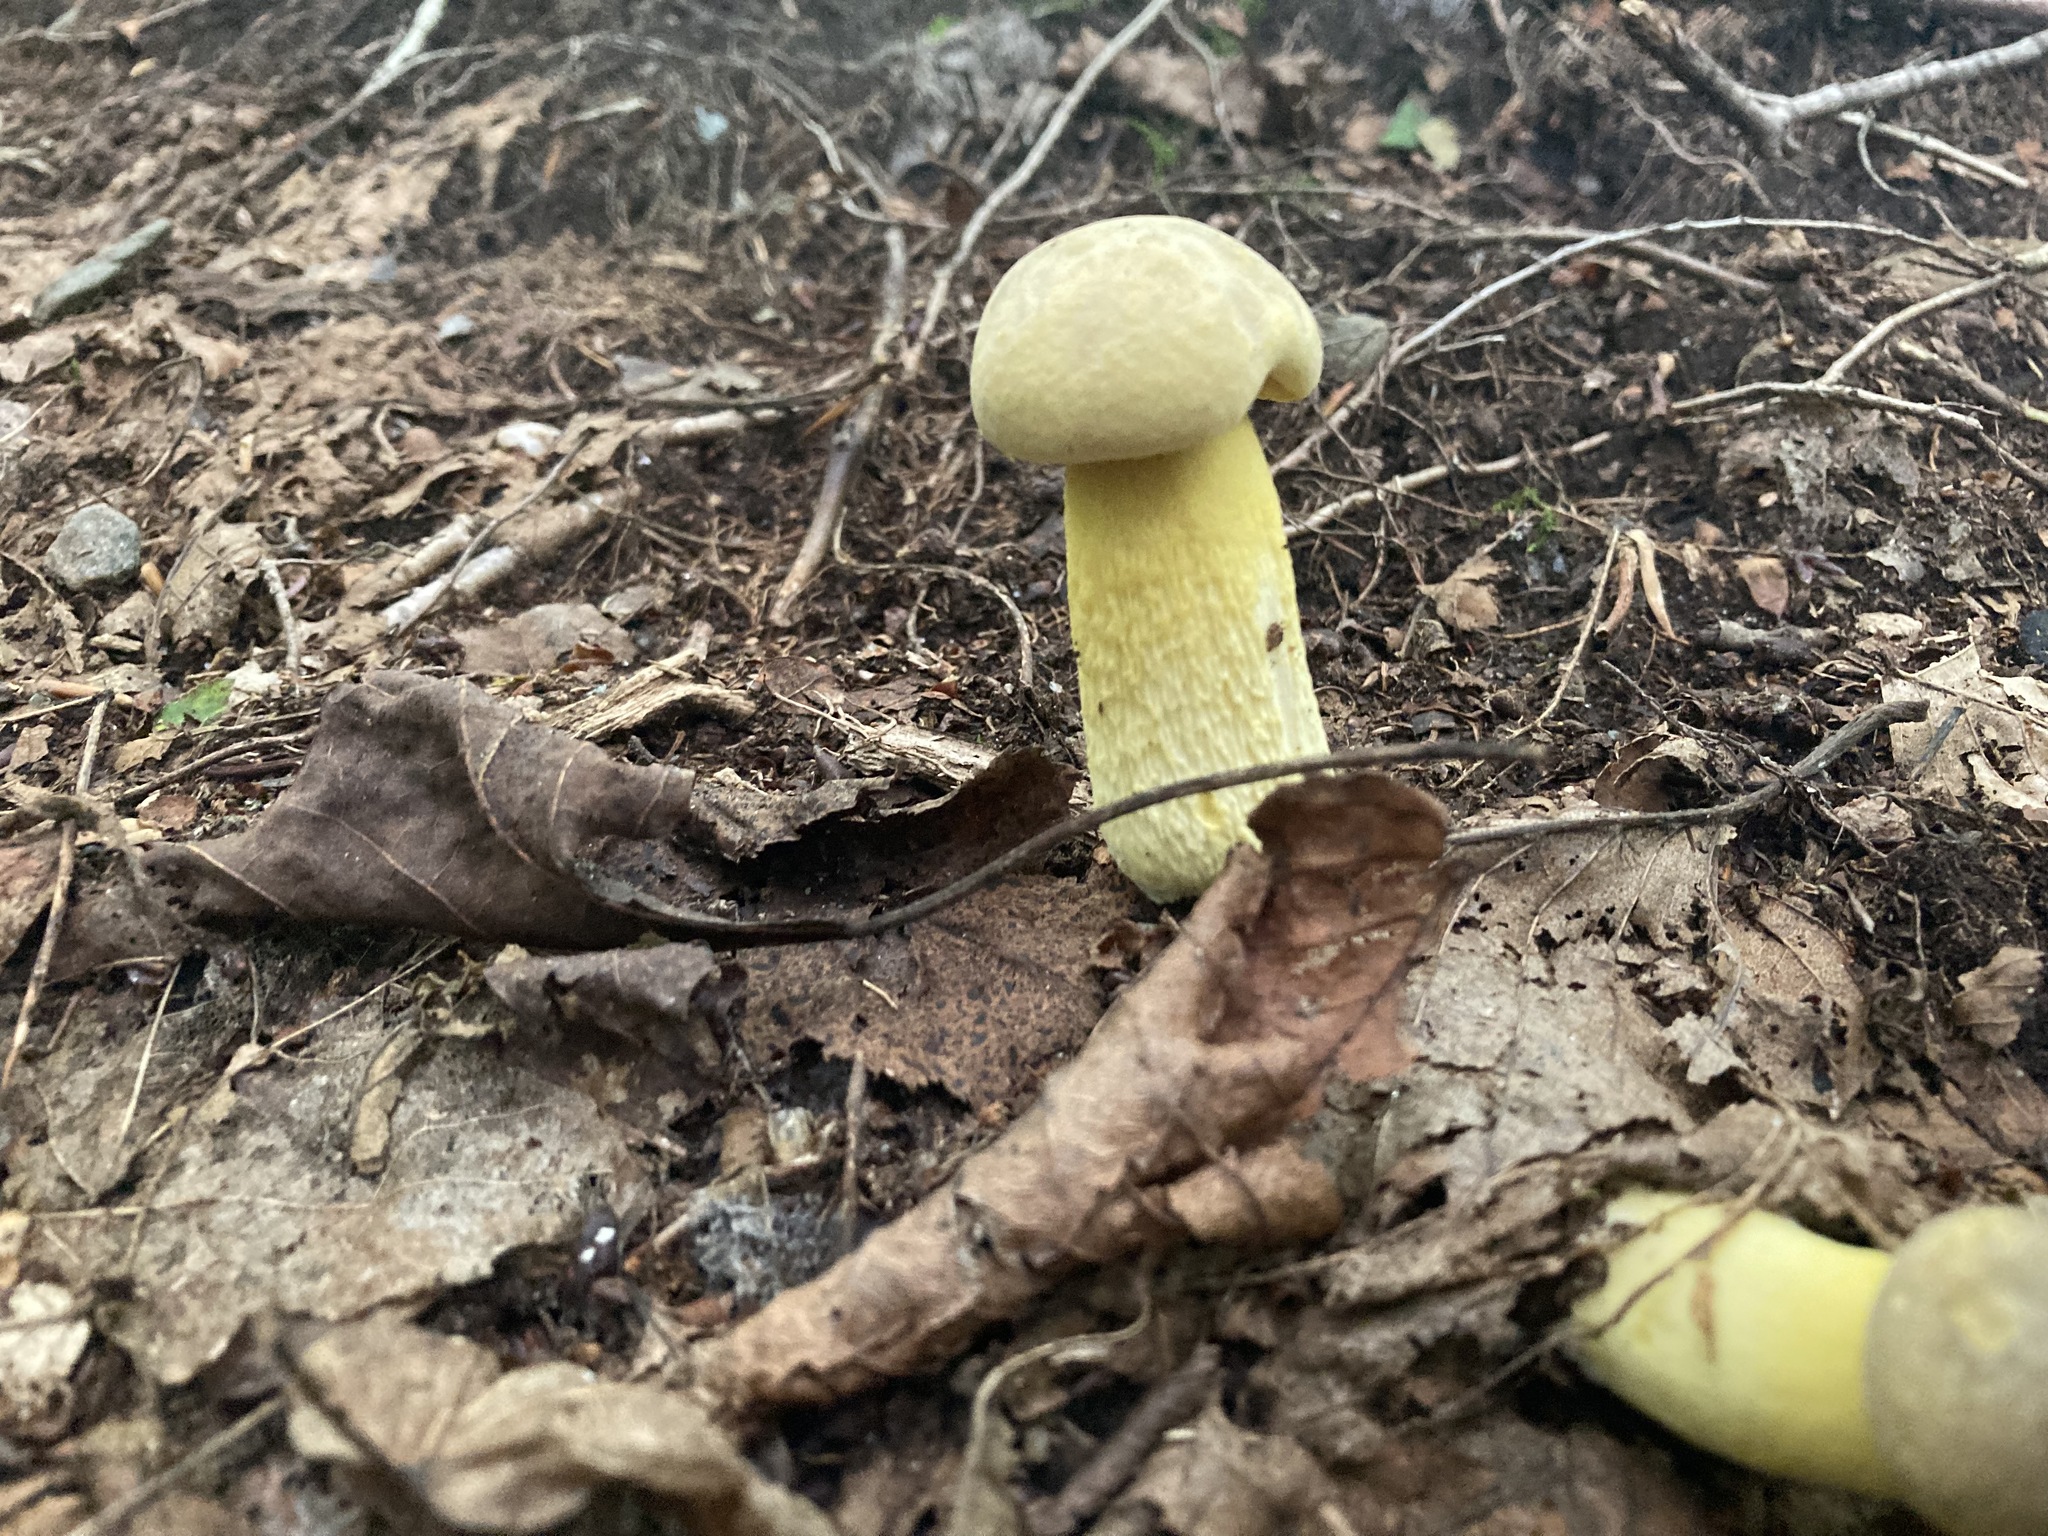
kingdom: Fungi
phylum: Basidiomycota
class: Agaricomycetes
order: Boletales
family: Boletaceae
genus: Retiboletus
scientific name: Retiboletus ornatipes
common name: Ornate-stalked bolete
